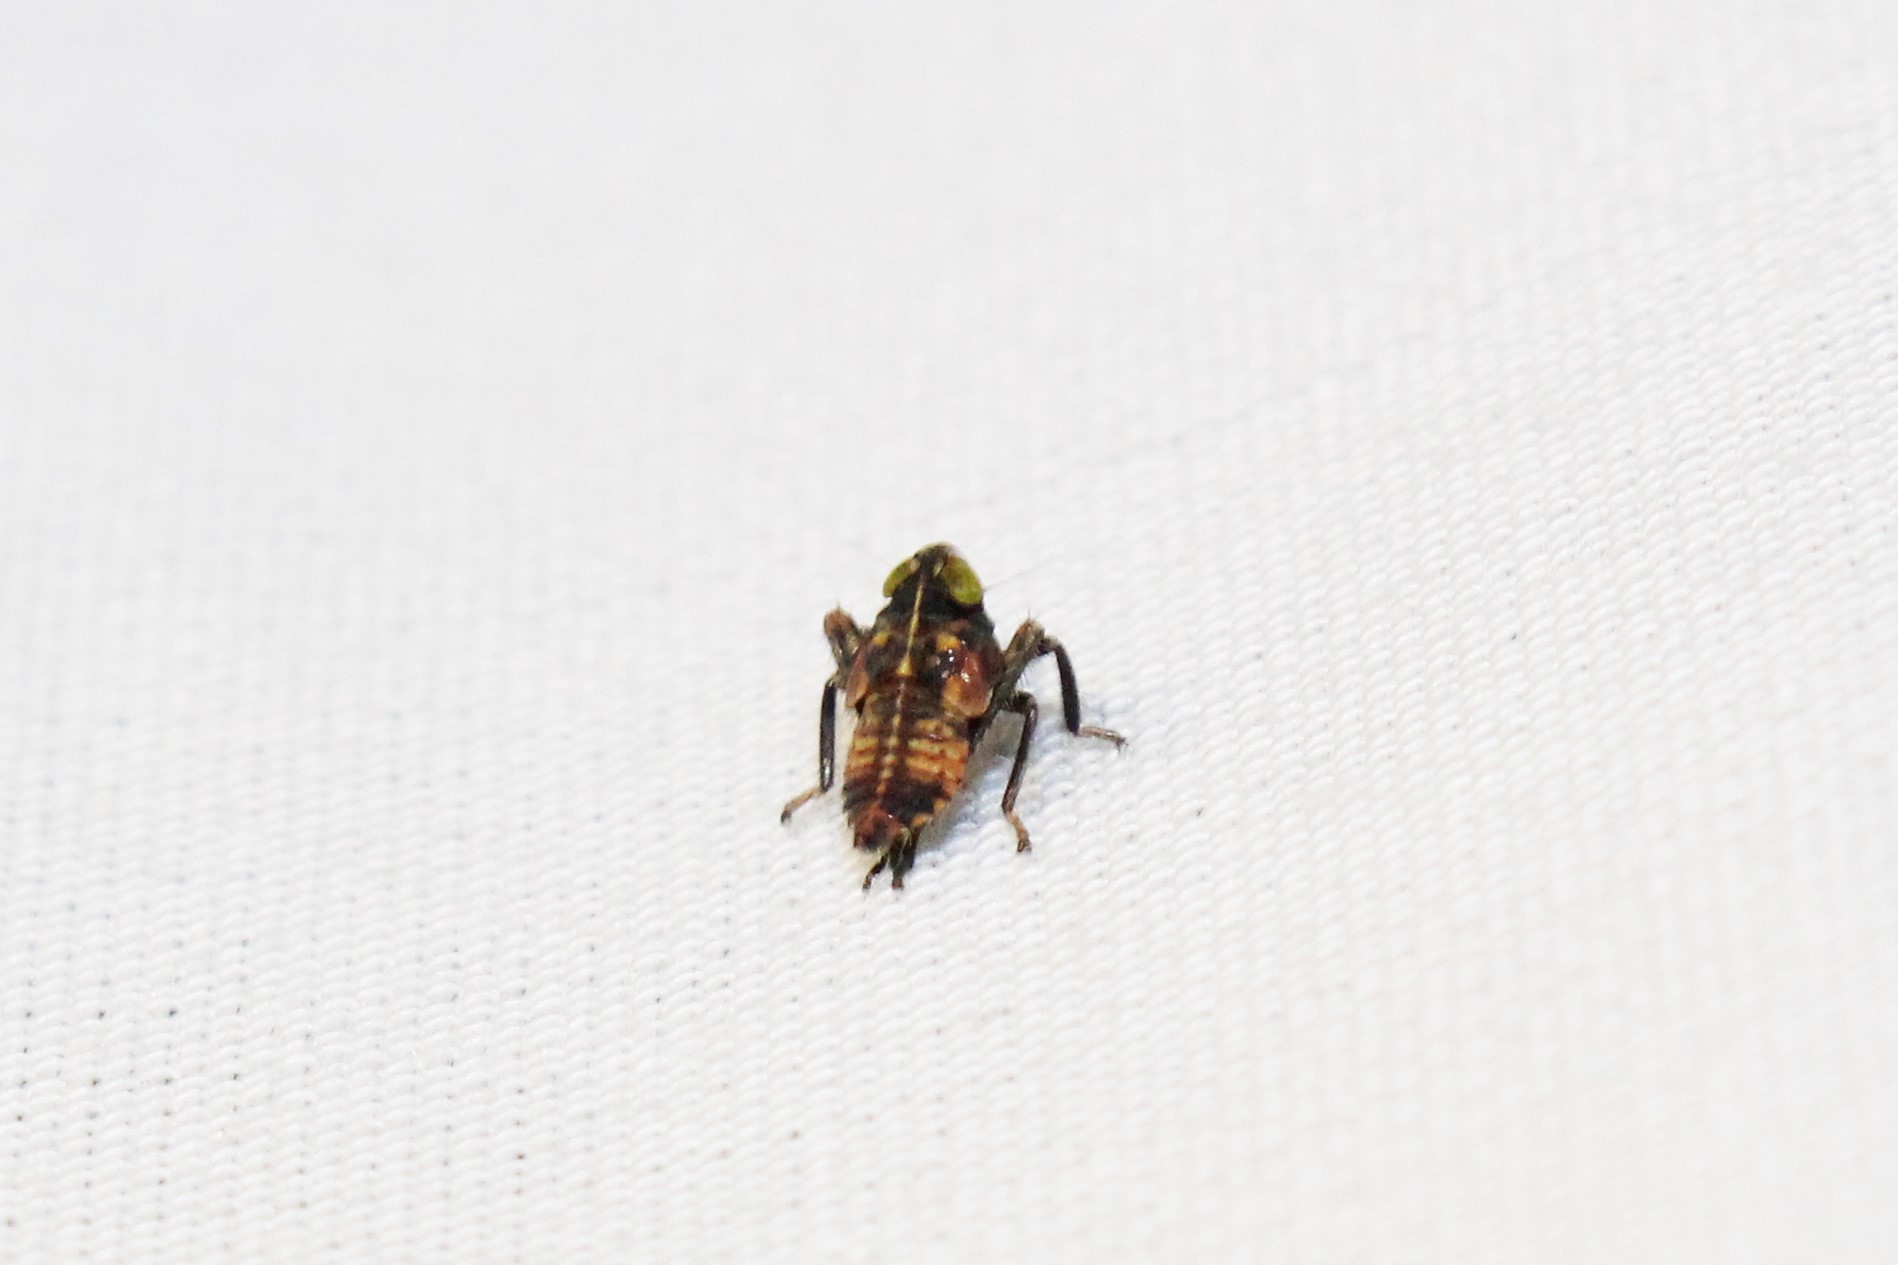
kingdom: Animalia
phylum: Arthropoda
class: Insecta
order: Hemiptera
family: Cicadellidae
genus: Jikradia
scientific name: Jikradia olitoria
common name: Coppery leafhopper
